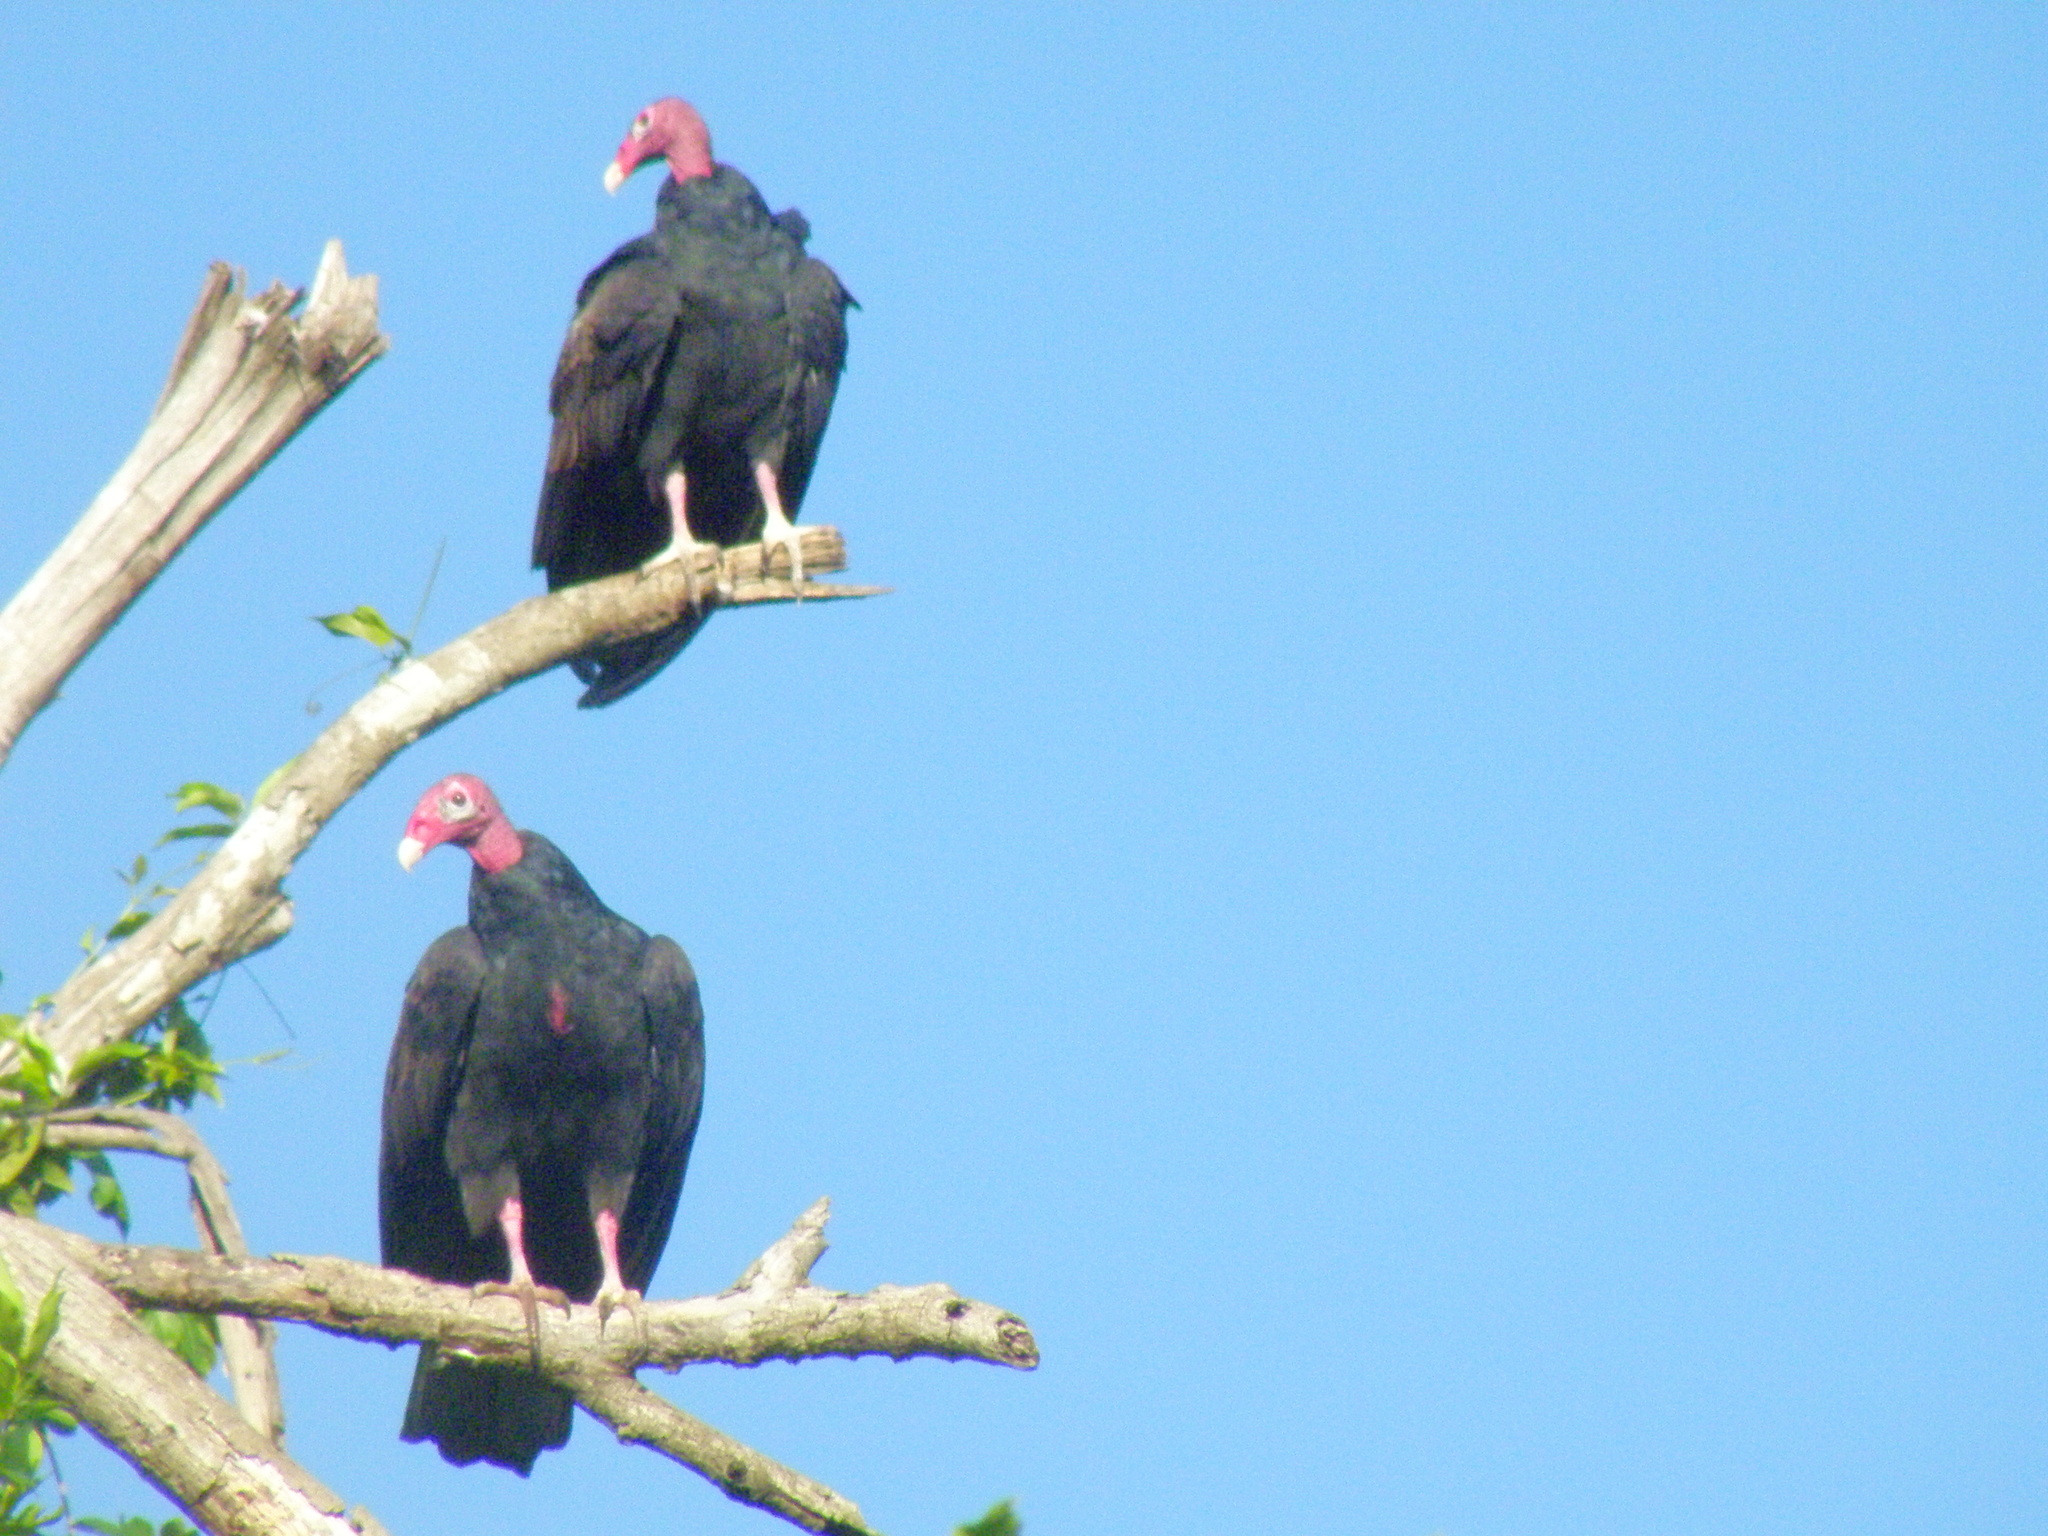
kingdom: Animalia
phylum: Chordata
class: Aves
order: Accipitriformes
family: Cathartidae
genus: Cathartes
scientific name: Cathartes aura
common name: Turkey vulture
